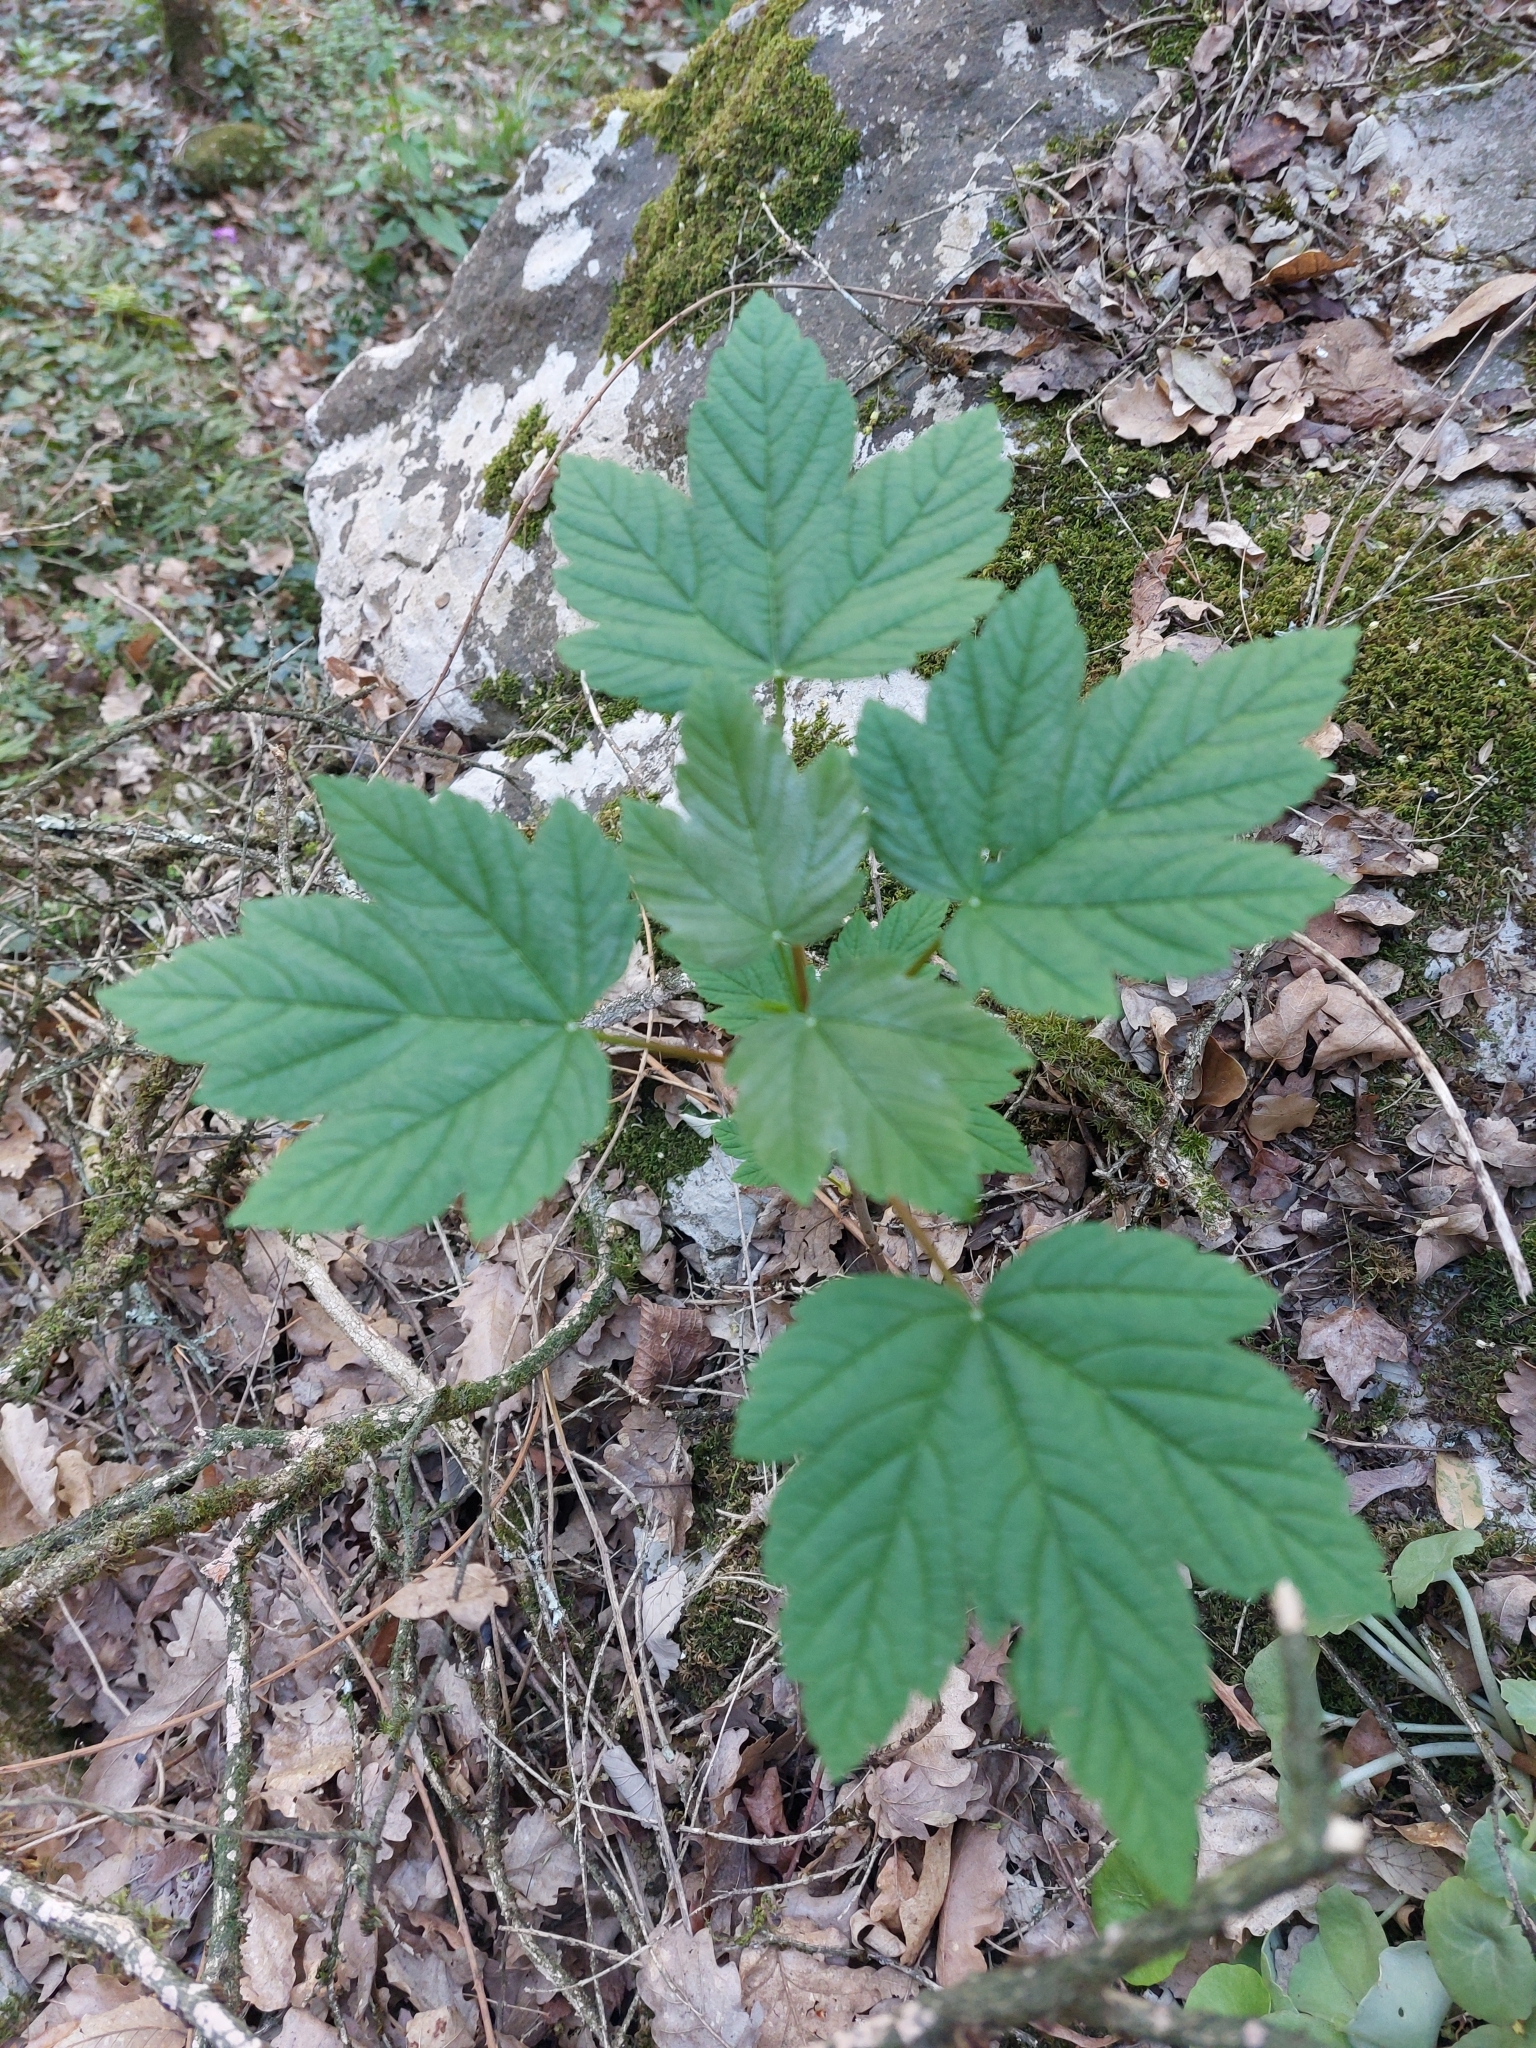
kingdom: Plantae
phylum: Tracheophyta
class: Magnoliopsida
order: Sapindales
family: Sapindaceae
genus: Acer
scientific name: Acer pseudoplatanus
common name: Sycamore
